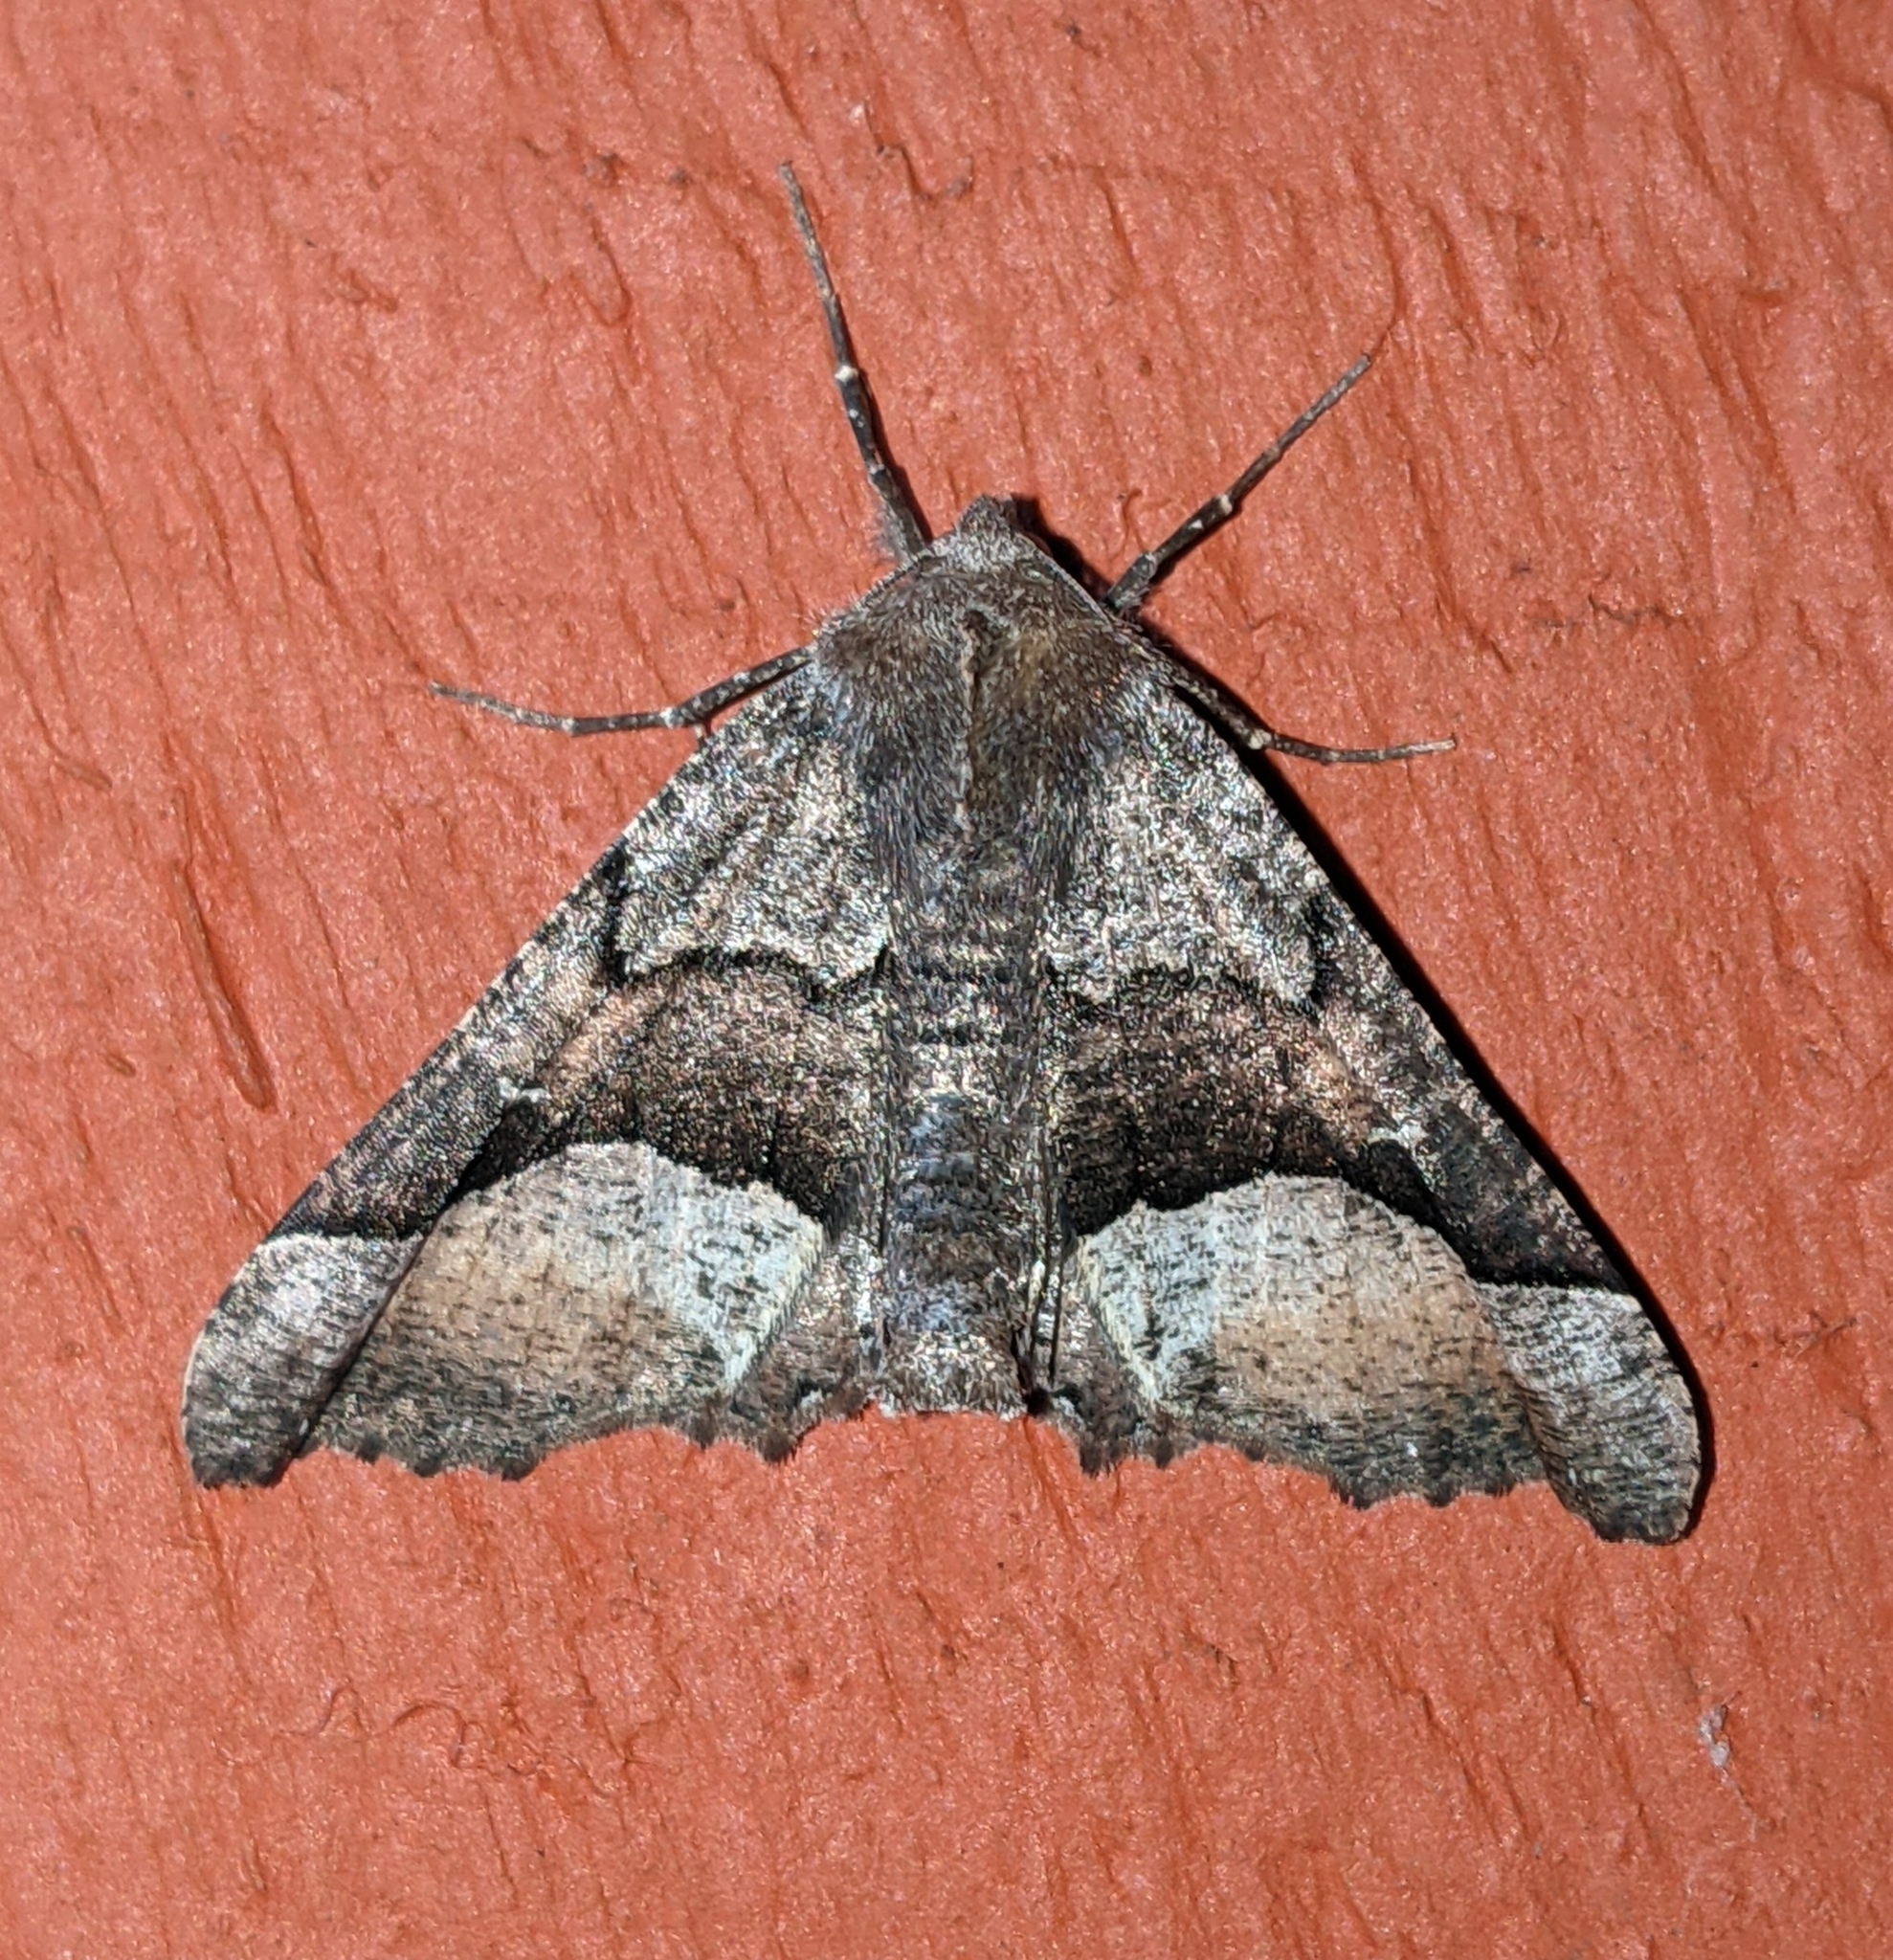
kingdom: Animalia
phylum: Arthropoda
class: Insecta
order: Lepidoptera
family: Geometridae
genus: Pero
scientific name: Pero behrensaria
